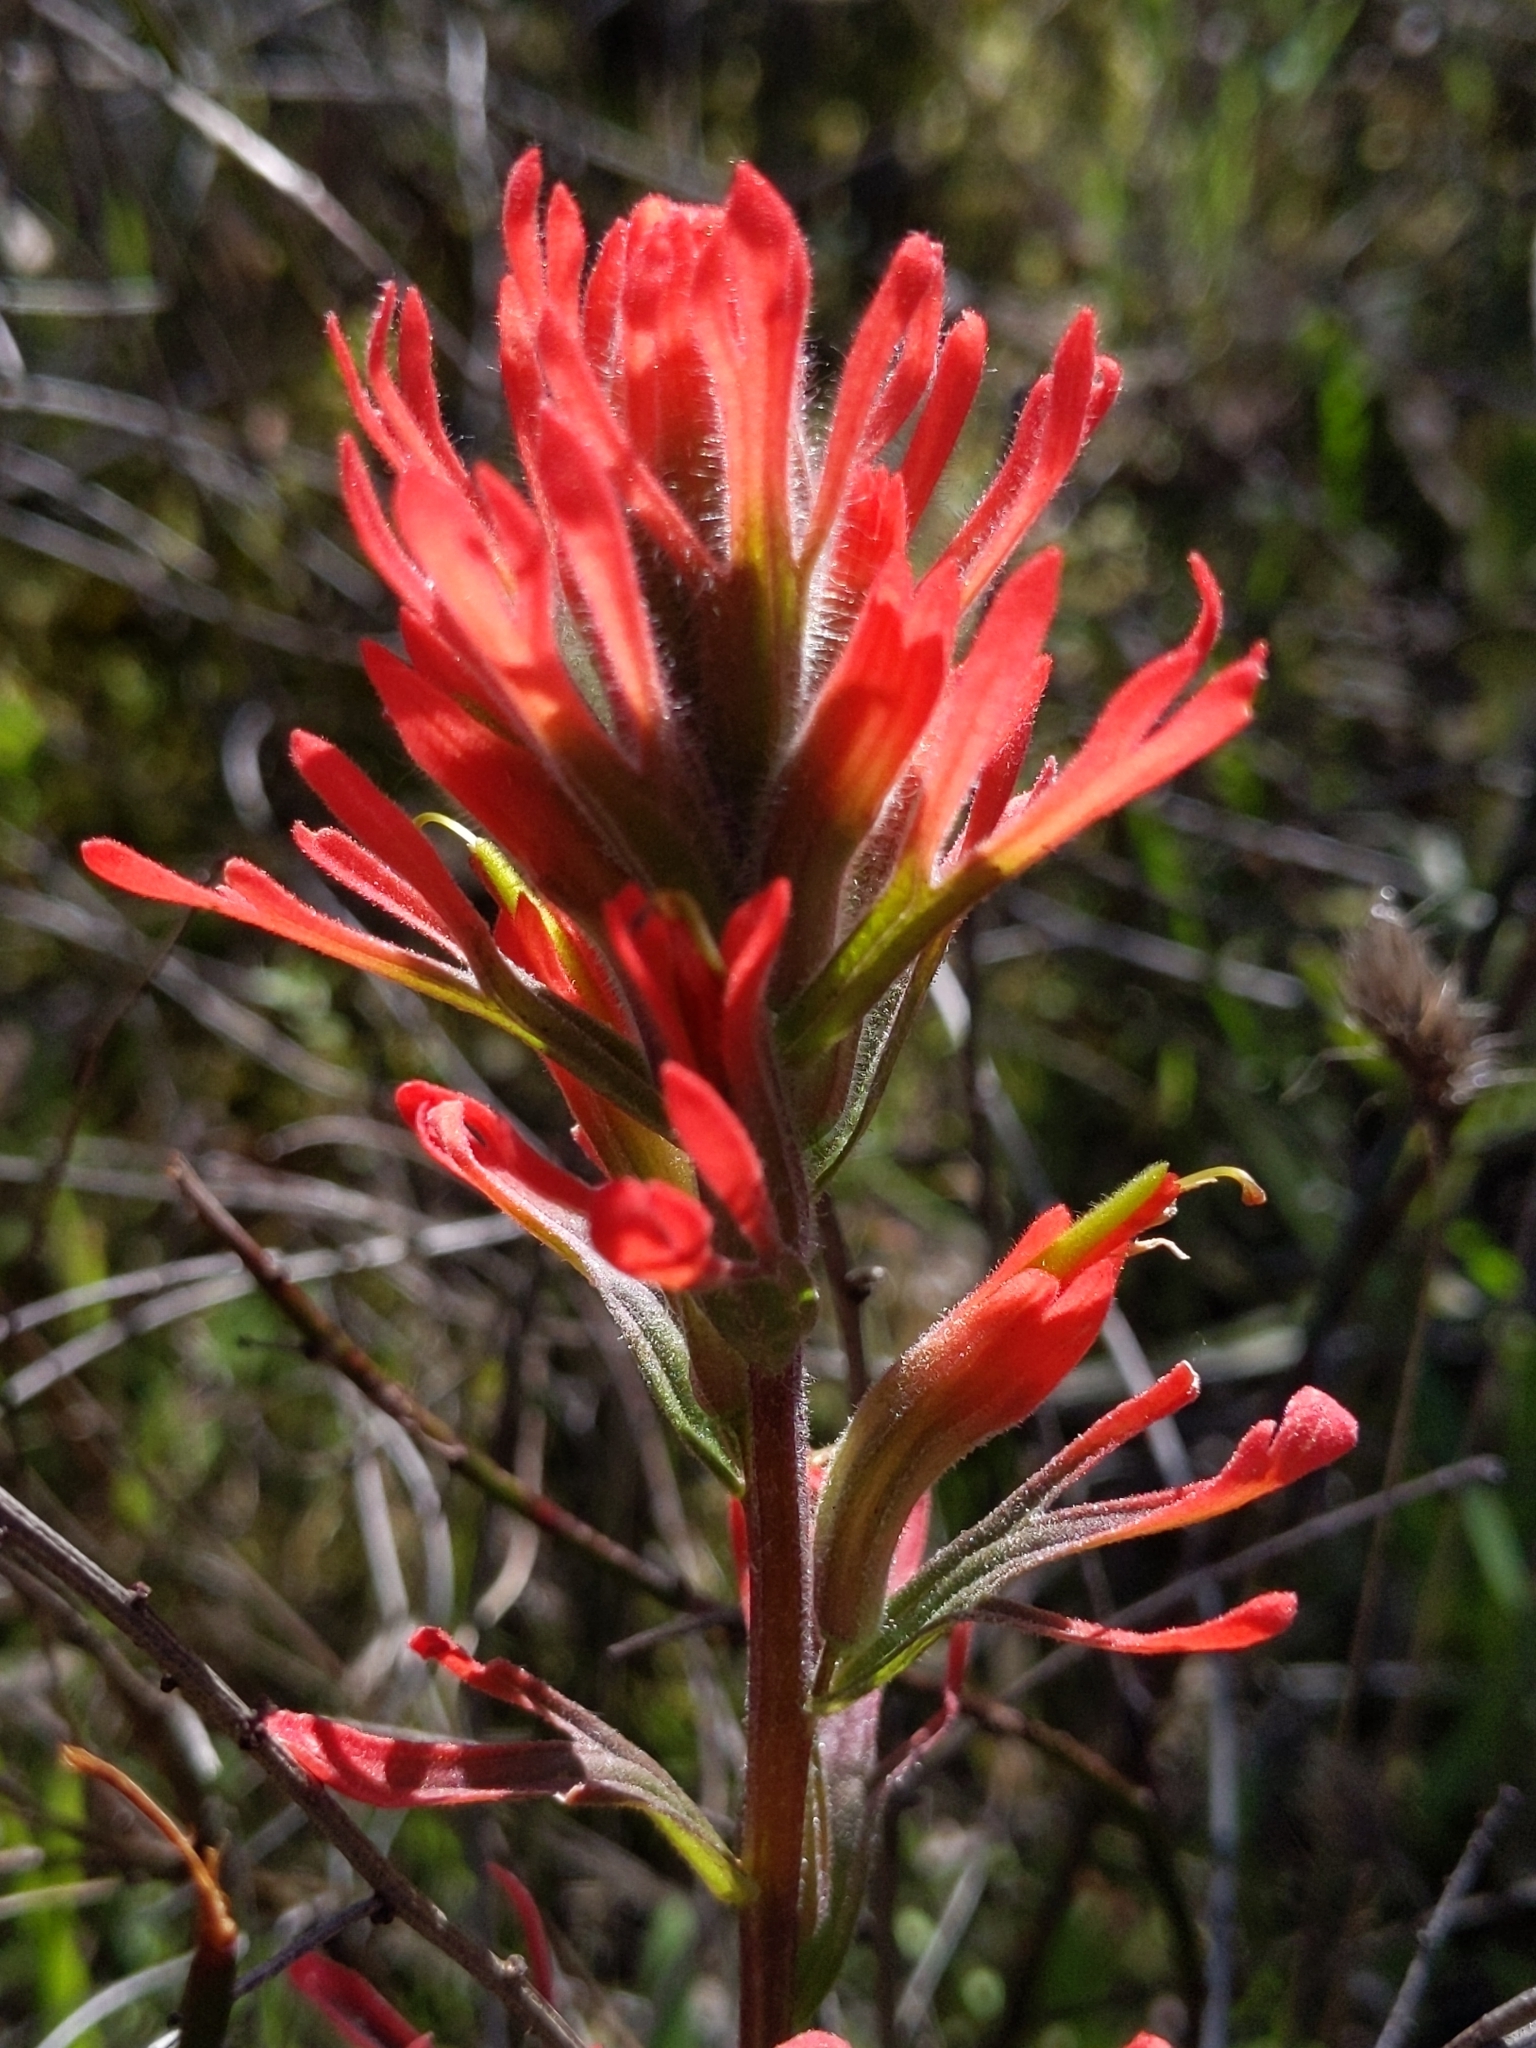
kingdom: Plantae
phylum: Tracheophyta
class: Magnoliopsida
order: Lamiales
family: Orobanchaceae
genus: Castilleja
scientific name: Castilleja affinis
